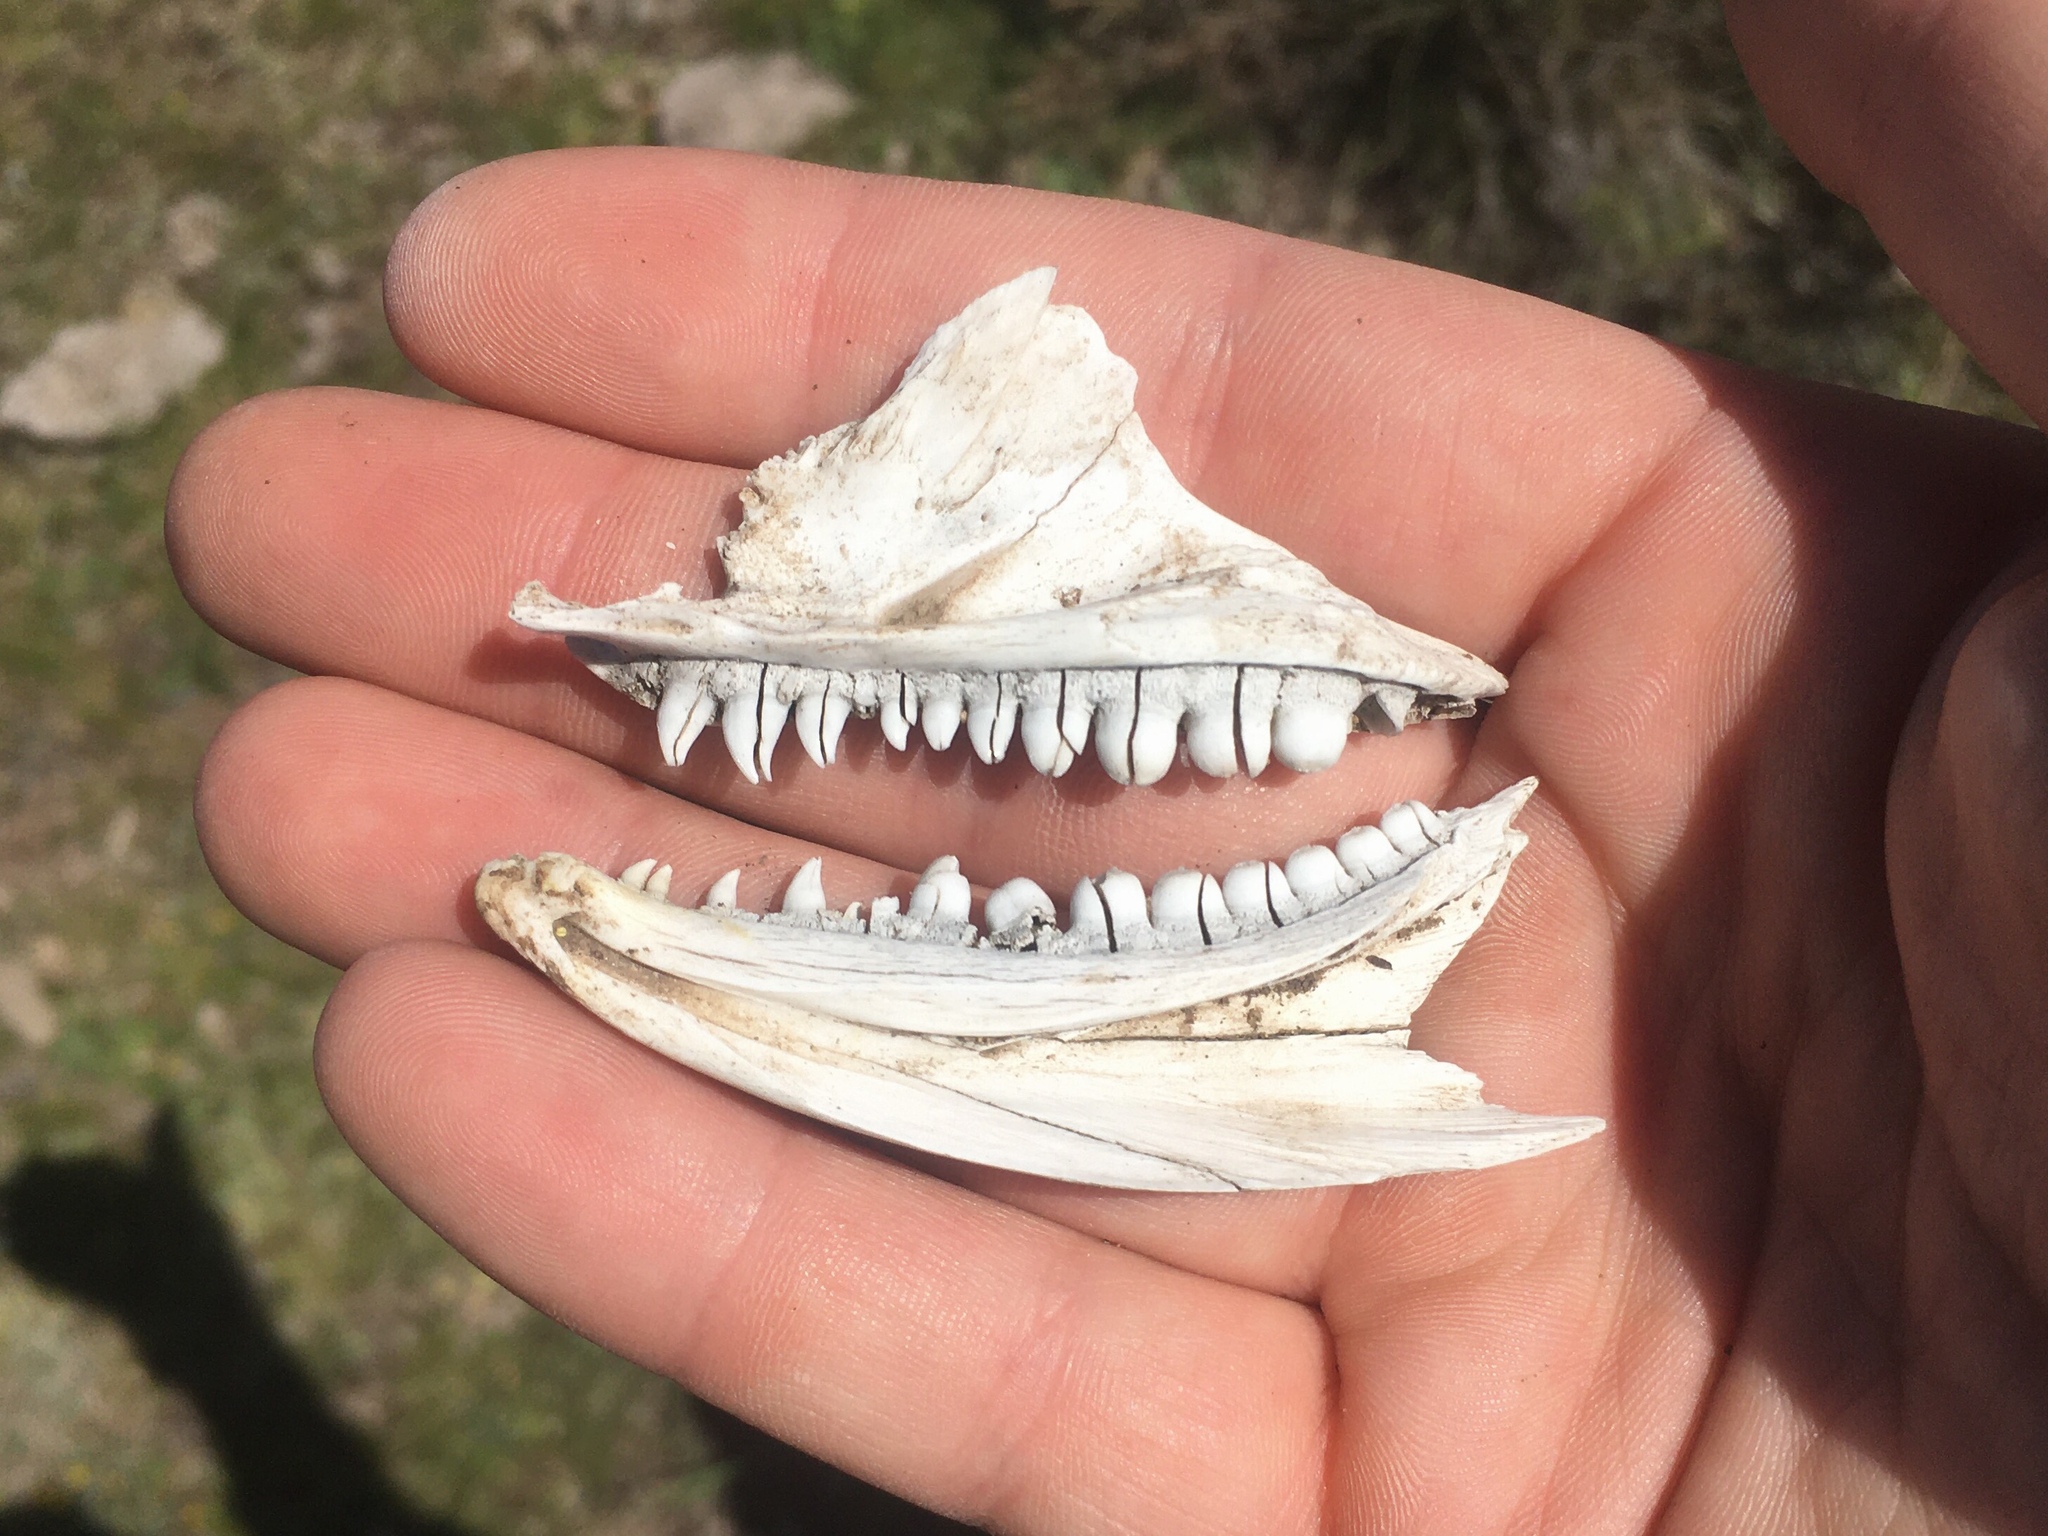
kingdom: Animalia
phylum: Chordata
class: Squamata
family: Teiidae
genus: Salvator
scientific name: Salvator merianae
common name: Argentine black and white tegu
